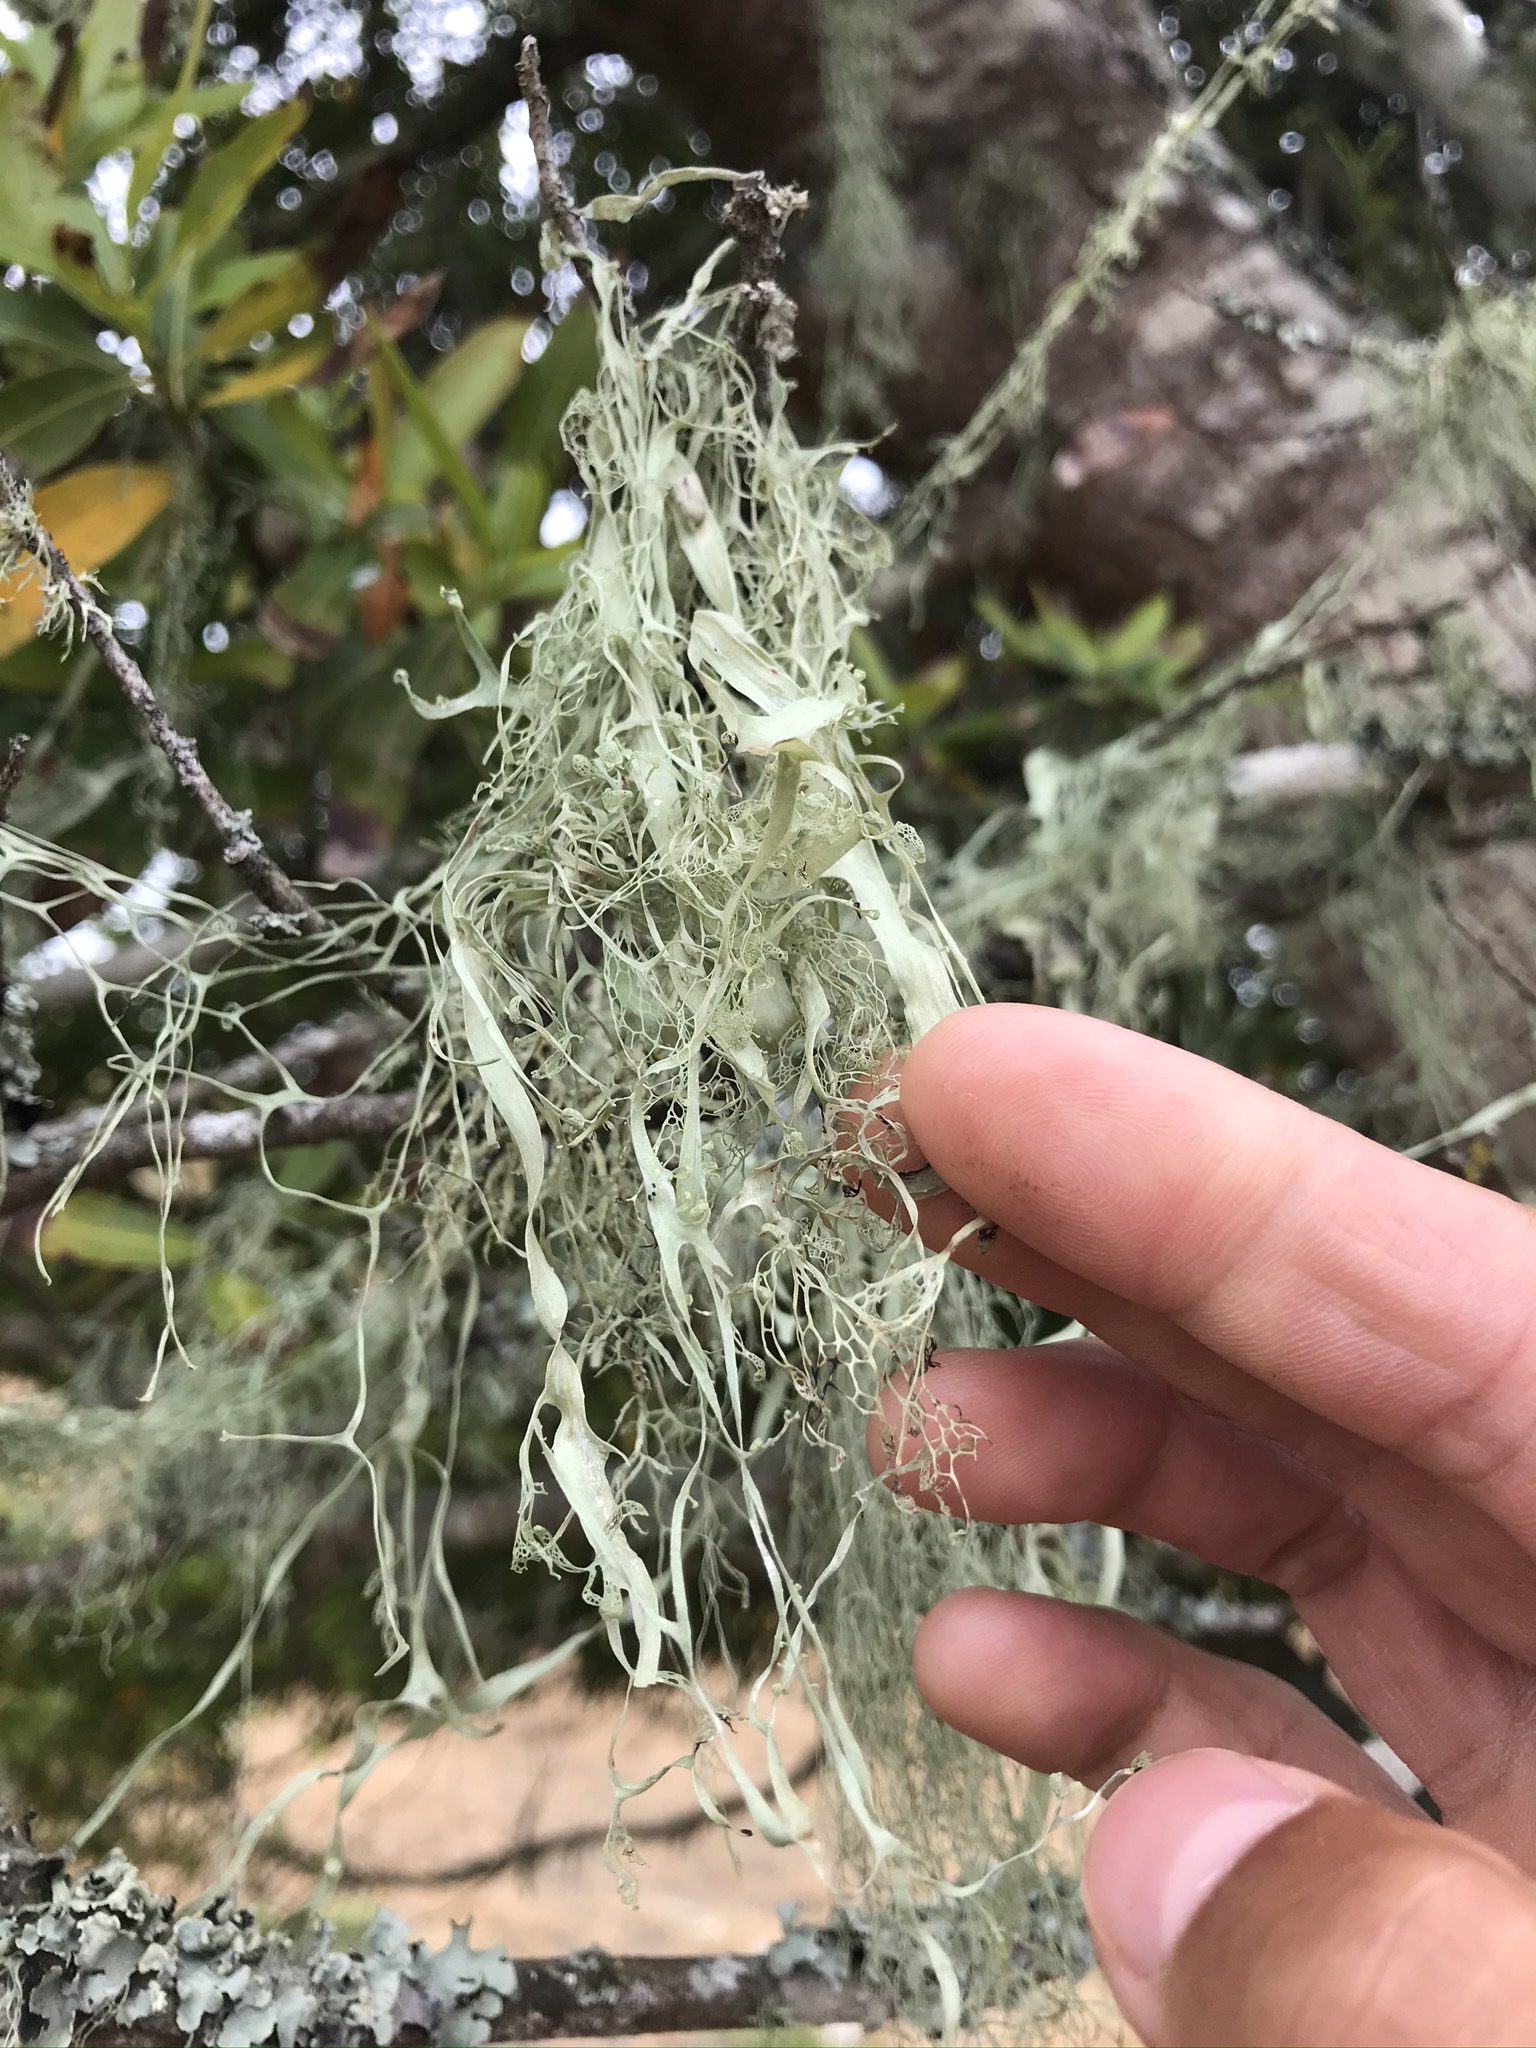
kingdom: Fungi
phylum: Ascomycota
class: Lecanoromycetes
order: Lecanorales
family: Ramalinaceae
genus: Ramalina
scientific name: Ramalina menziesii
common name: Lace lichen
